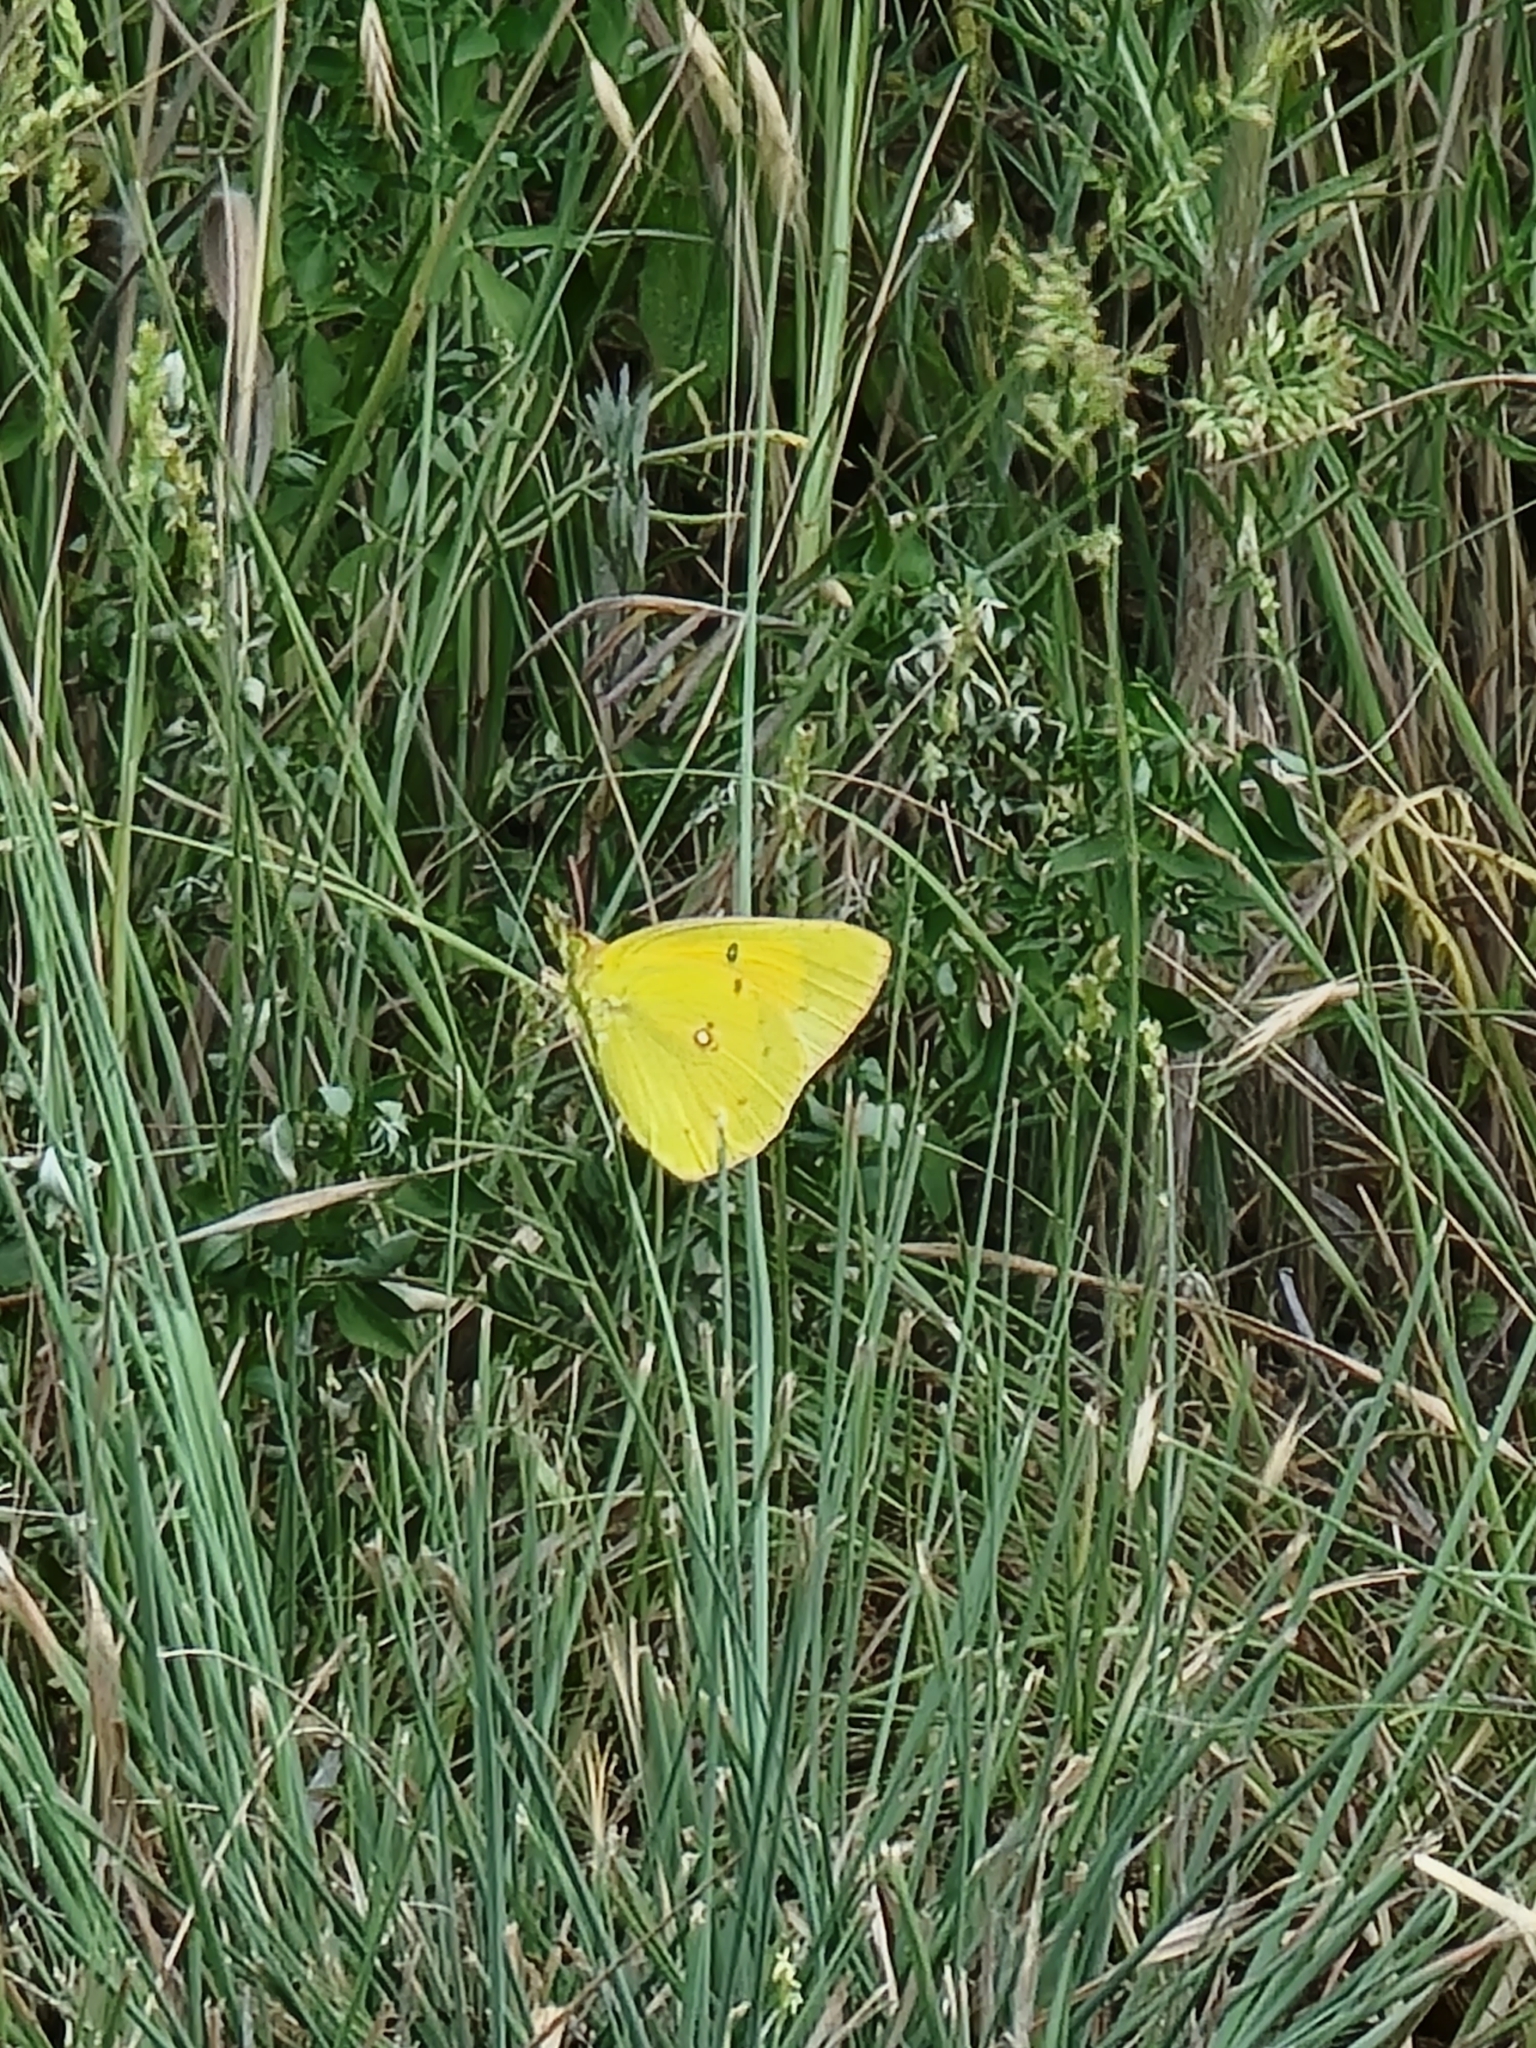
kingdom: Animalia
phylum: Arthropoda
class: Insecta
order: Lepidoptera
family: Pieridae
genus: Colias
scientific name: Colias eurytheme
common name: Alfalfa butterfly
